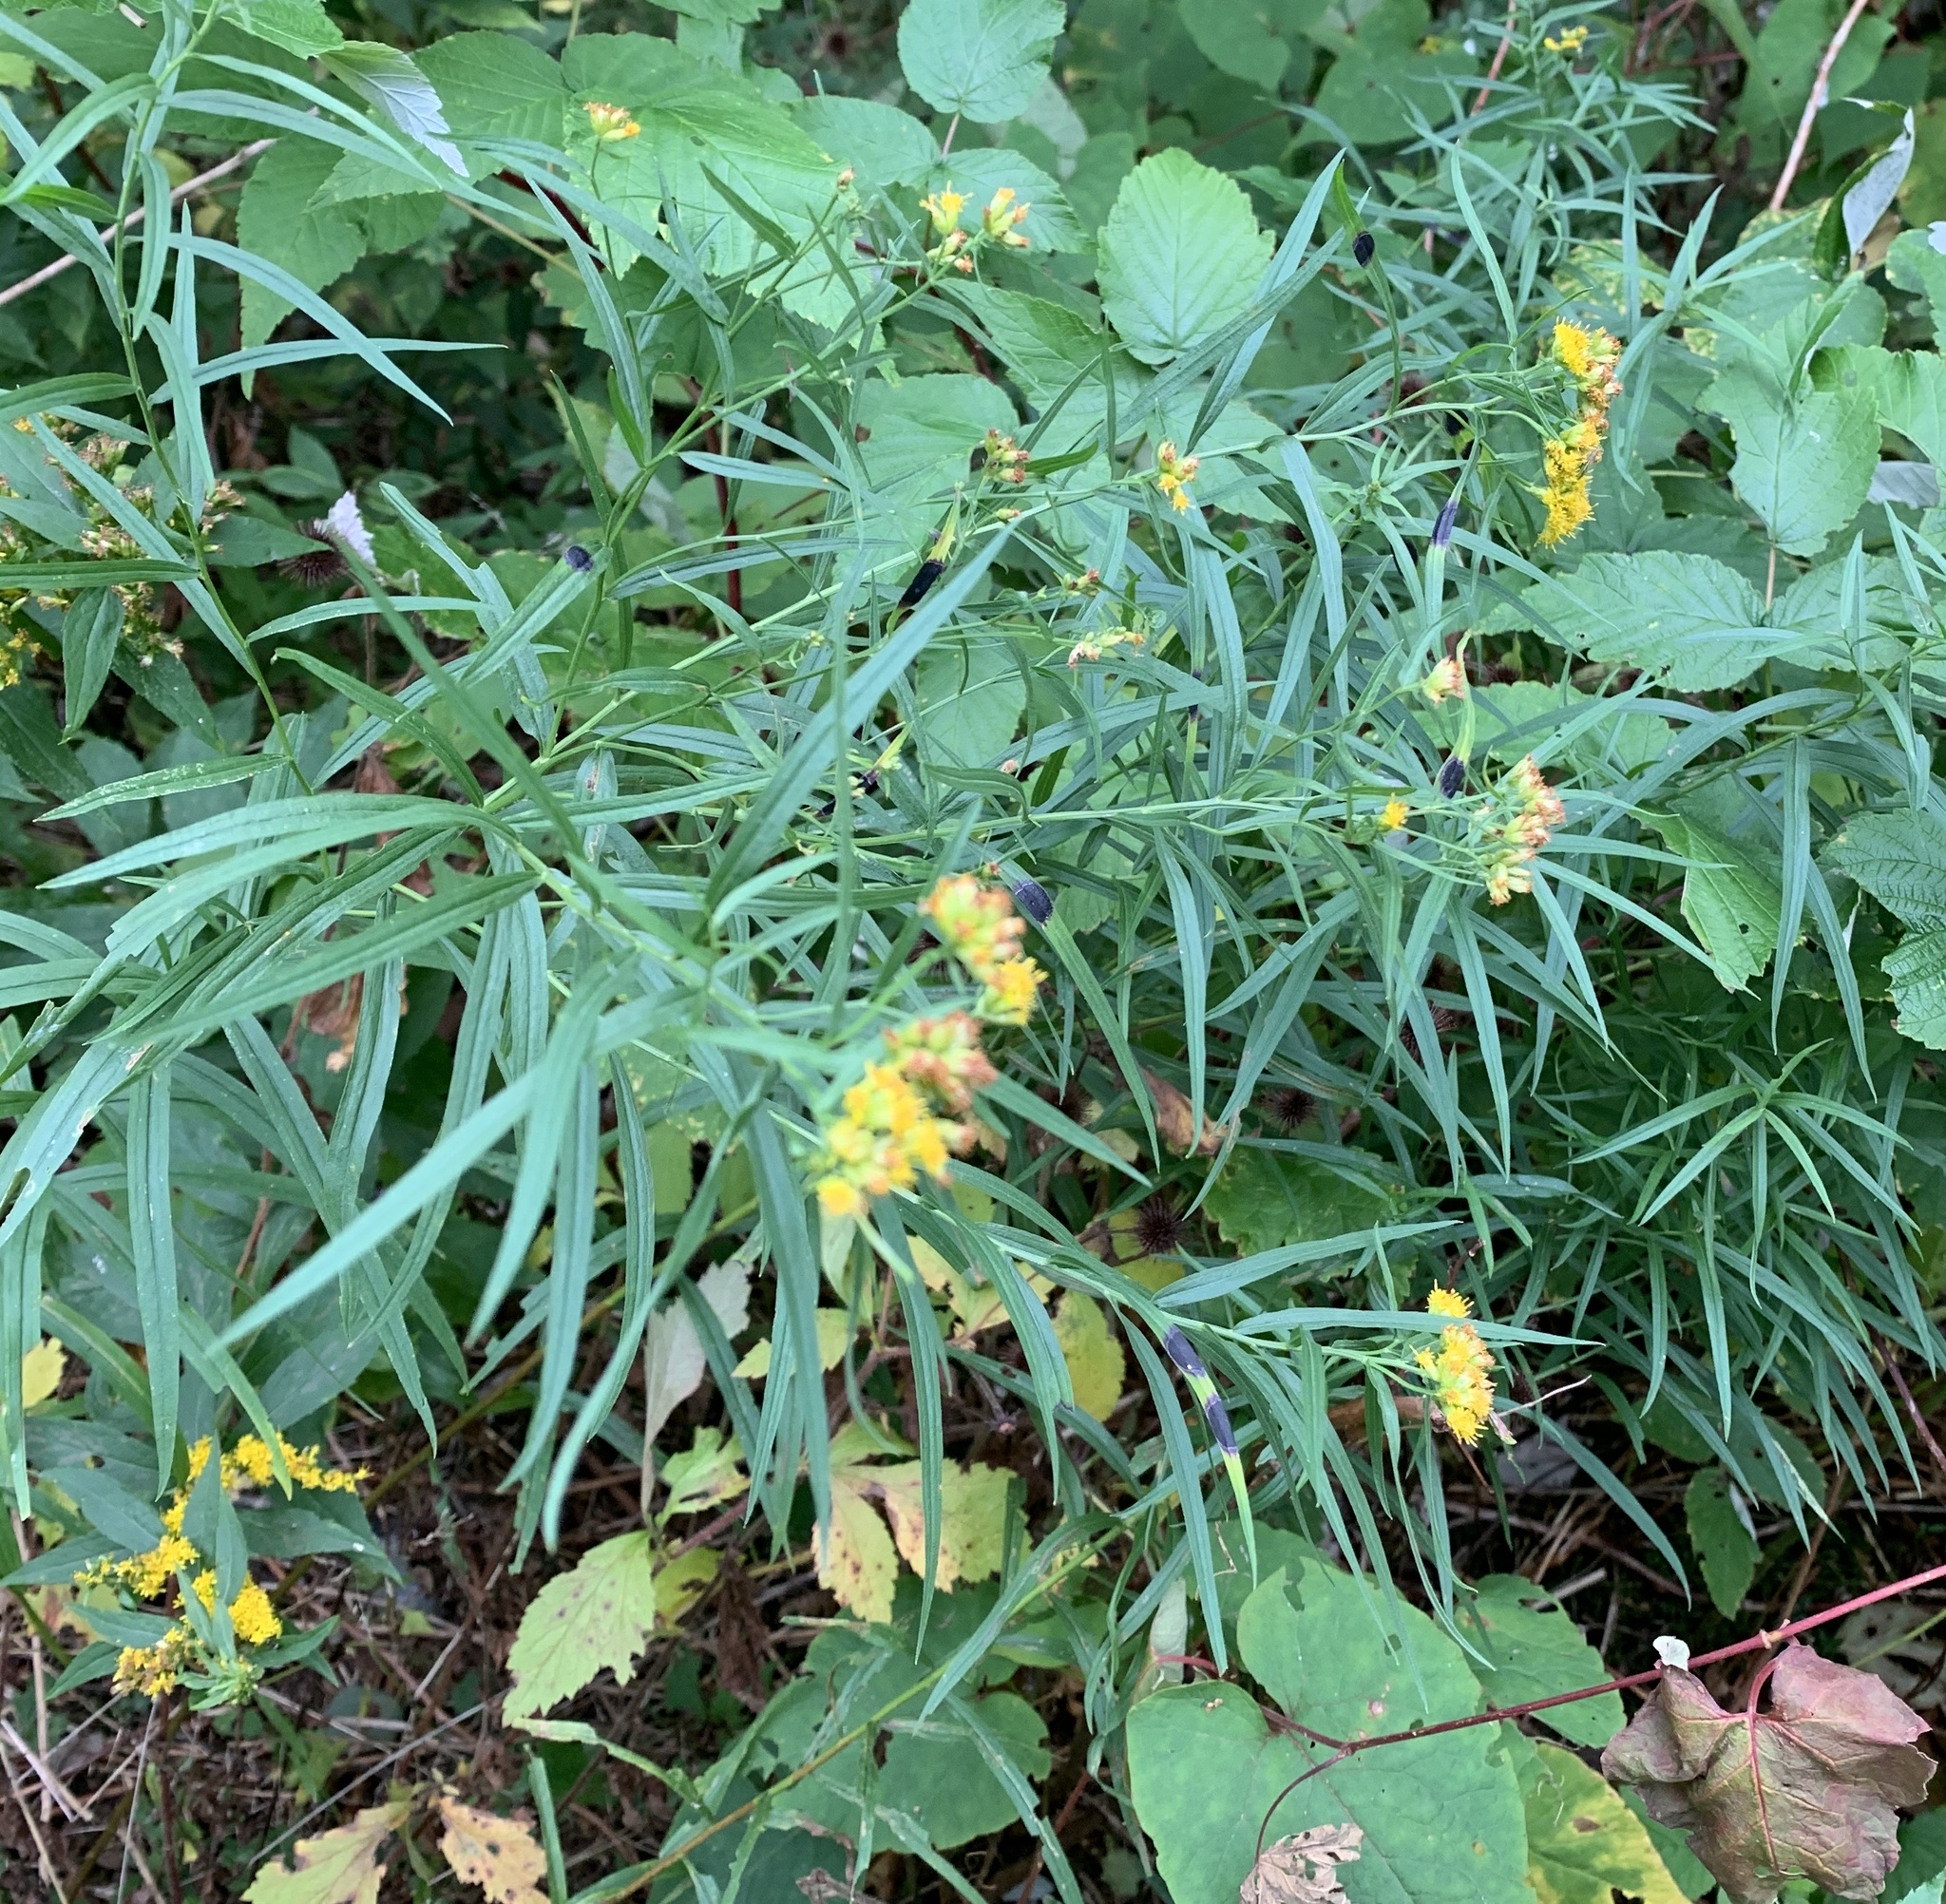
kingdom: Plantae
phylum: Tracheophyta
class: Magnoliopsida
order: Asterales
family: Asteraceae
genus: Euthamia
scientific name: Euthamia graminifolia
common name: Common goldentop
